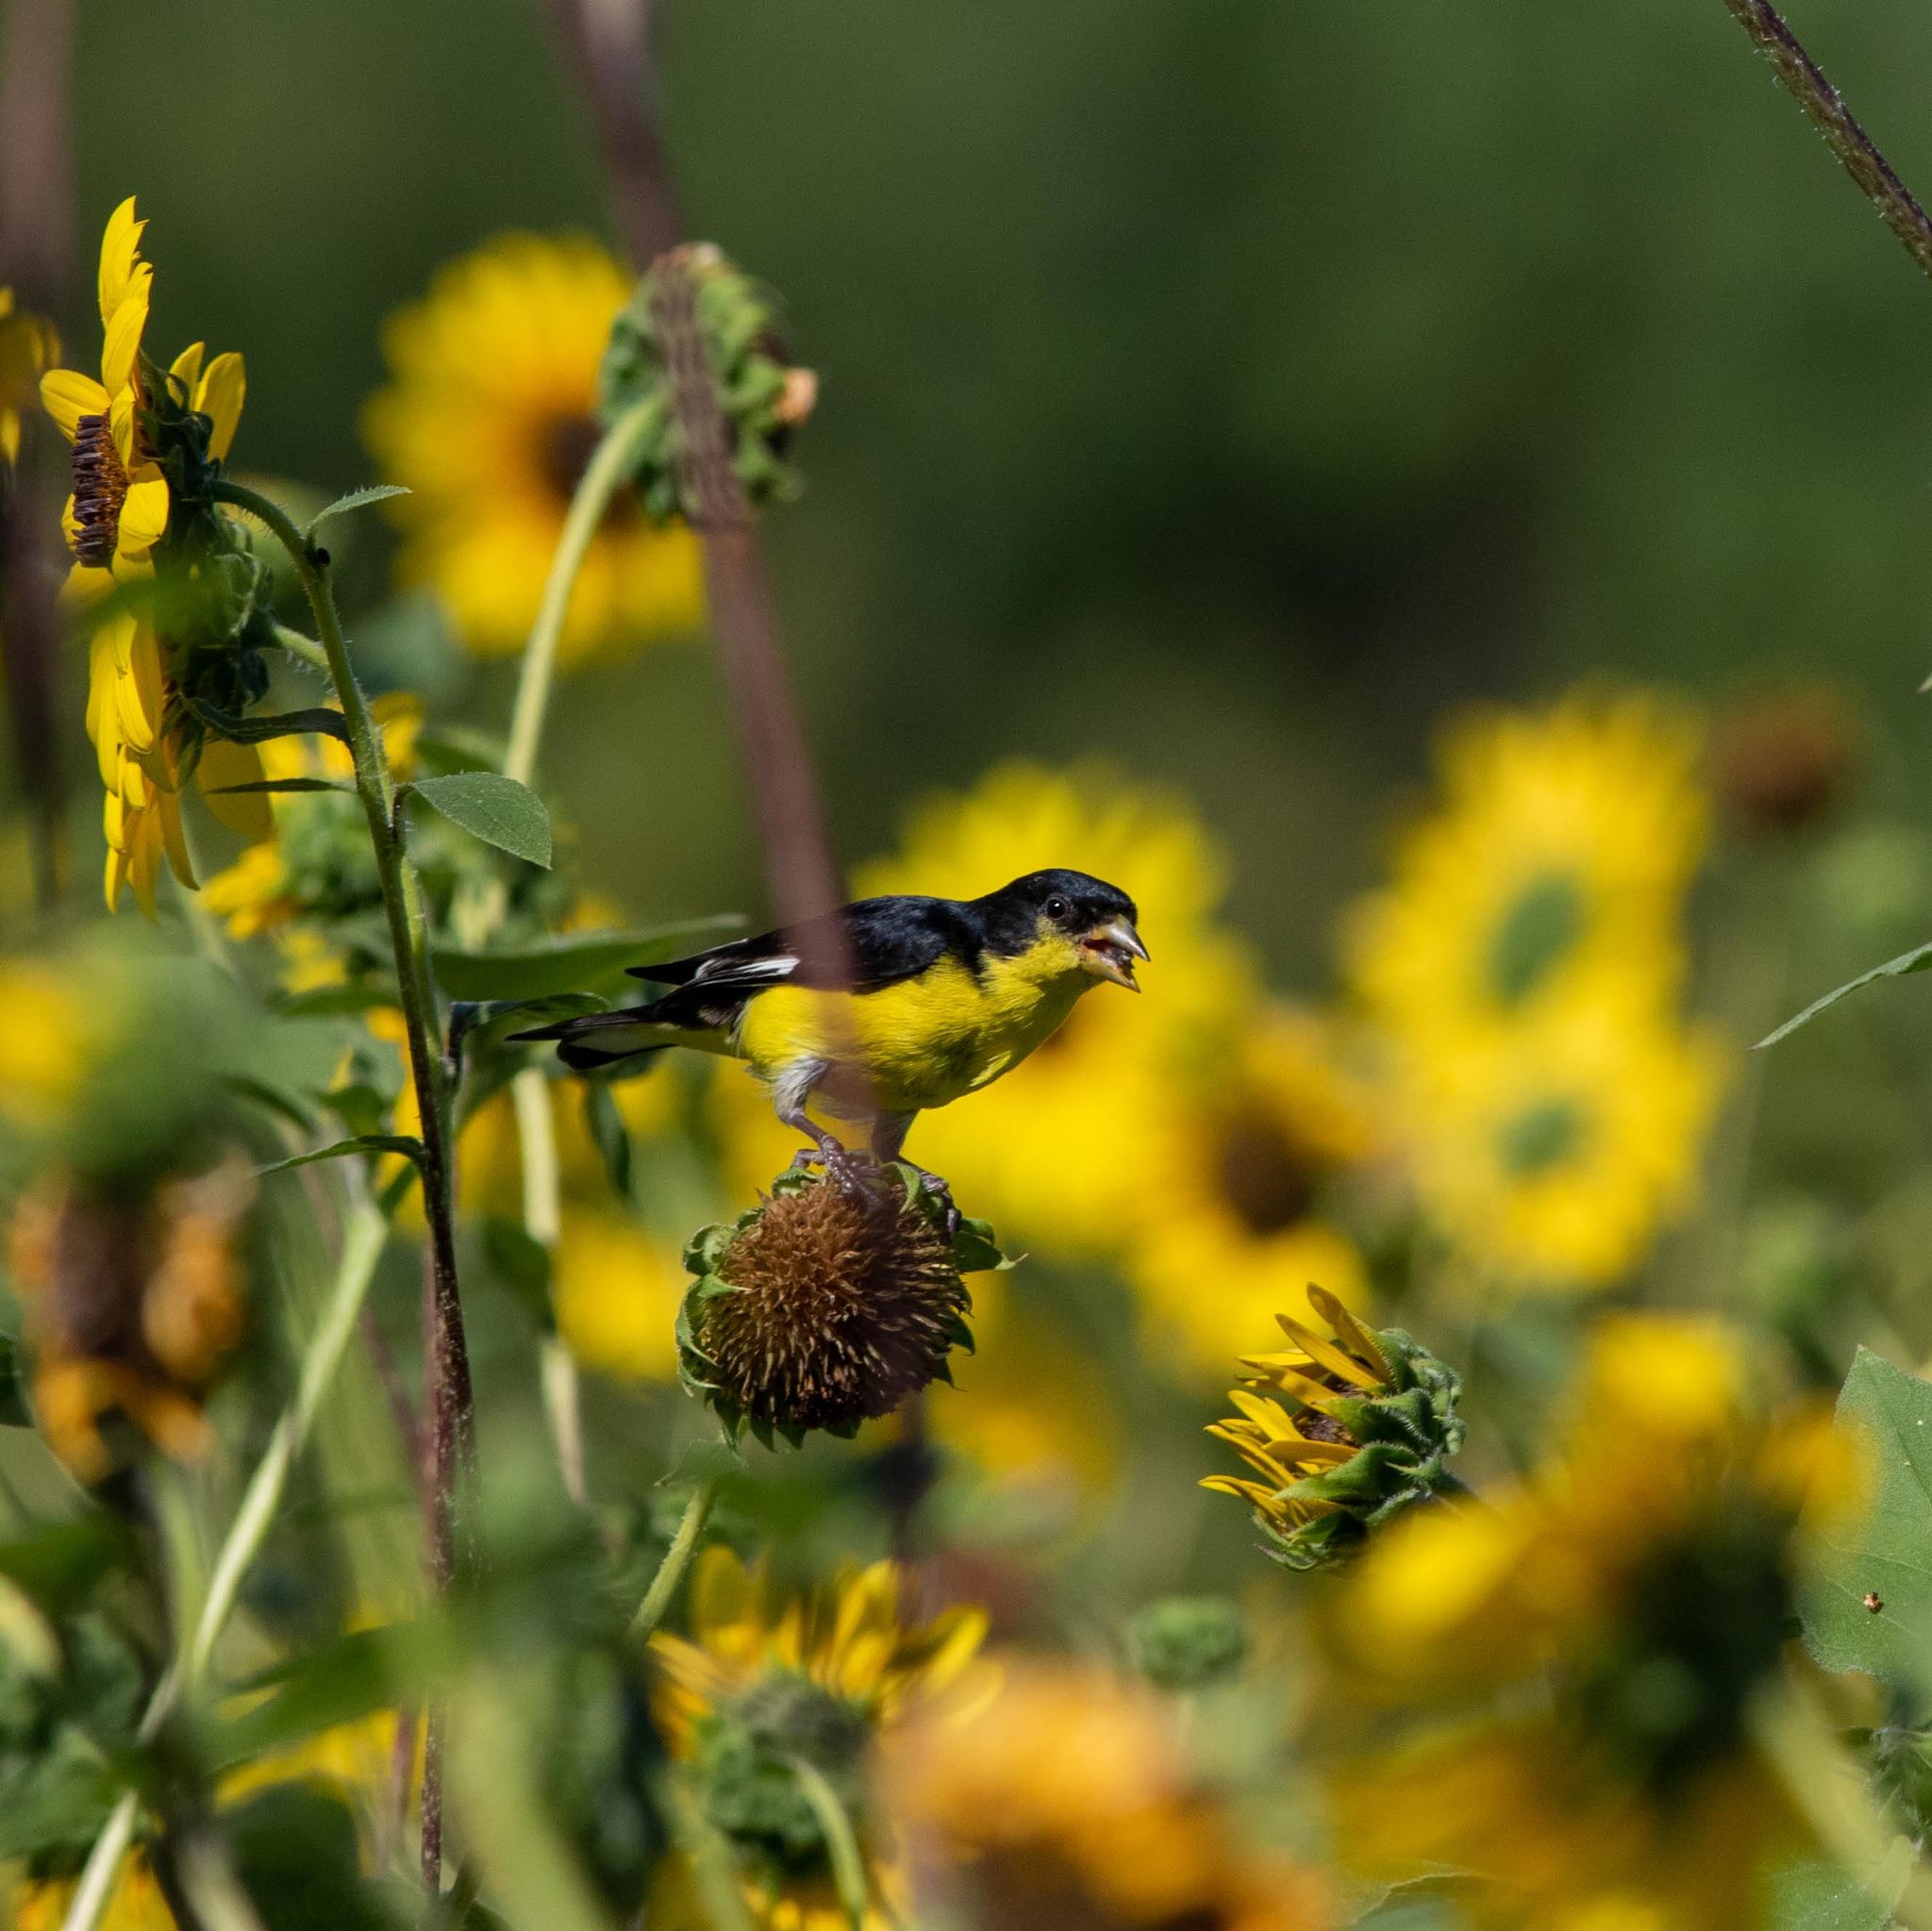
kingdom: Animalia
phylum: Chordata
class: Aves
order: Passeriformes
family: Fringillidae
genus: Spinus
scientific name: Spinus psaltria
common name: Lesser goldfinch
